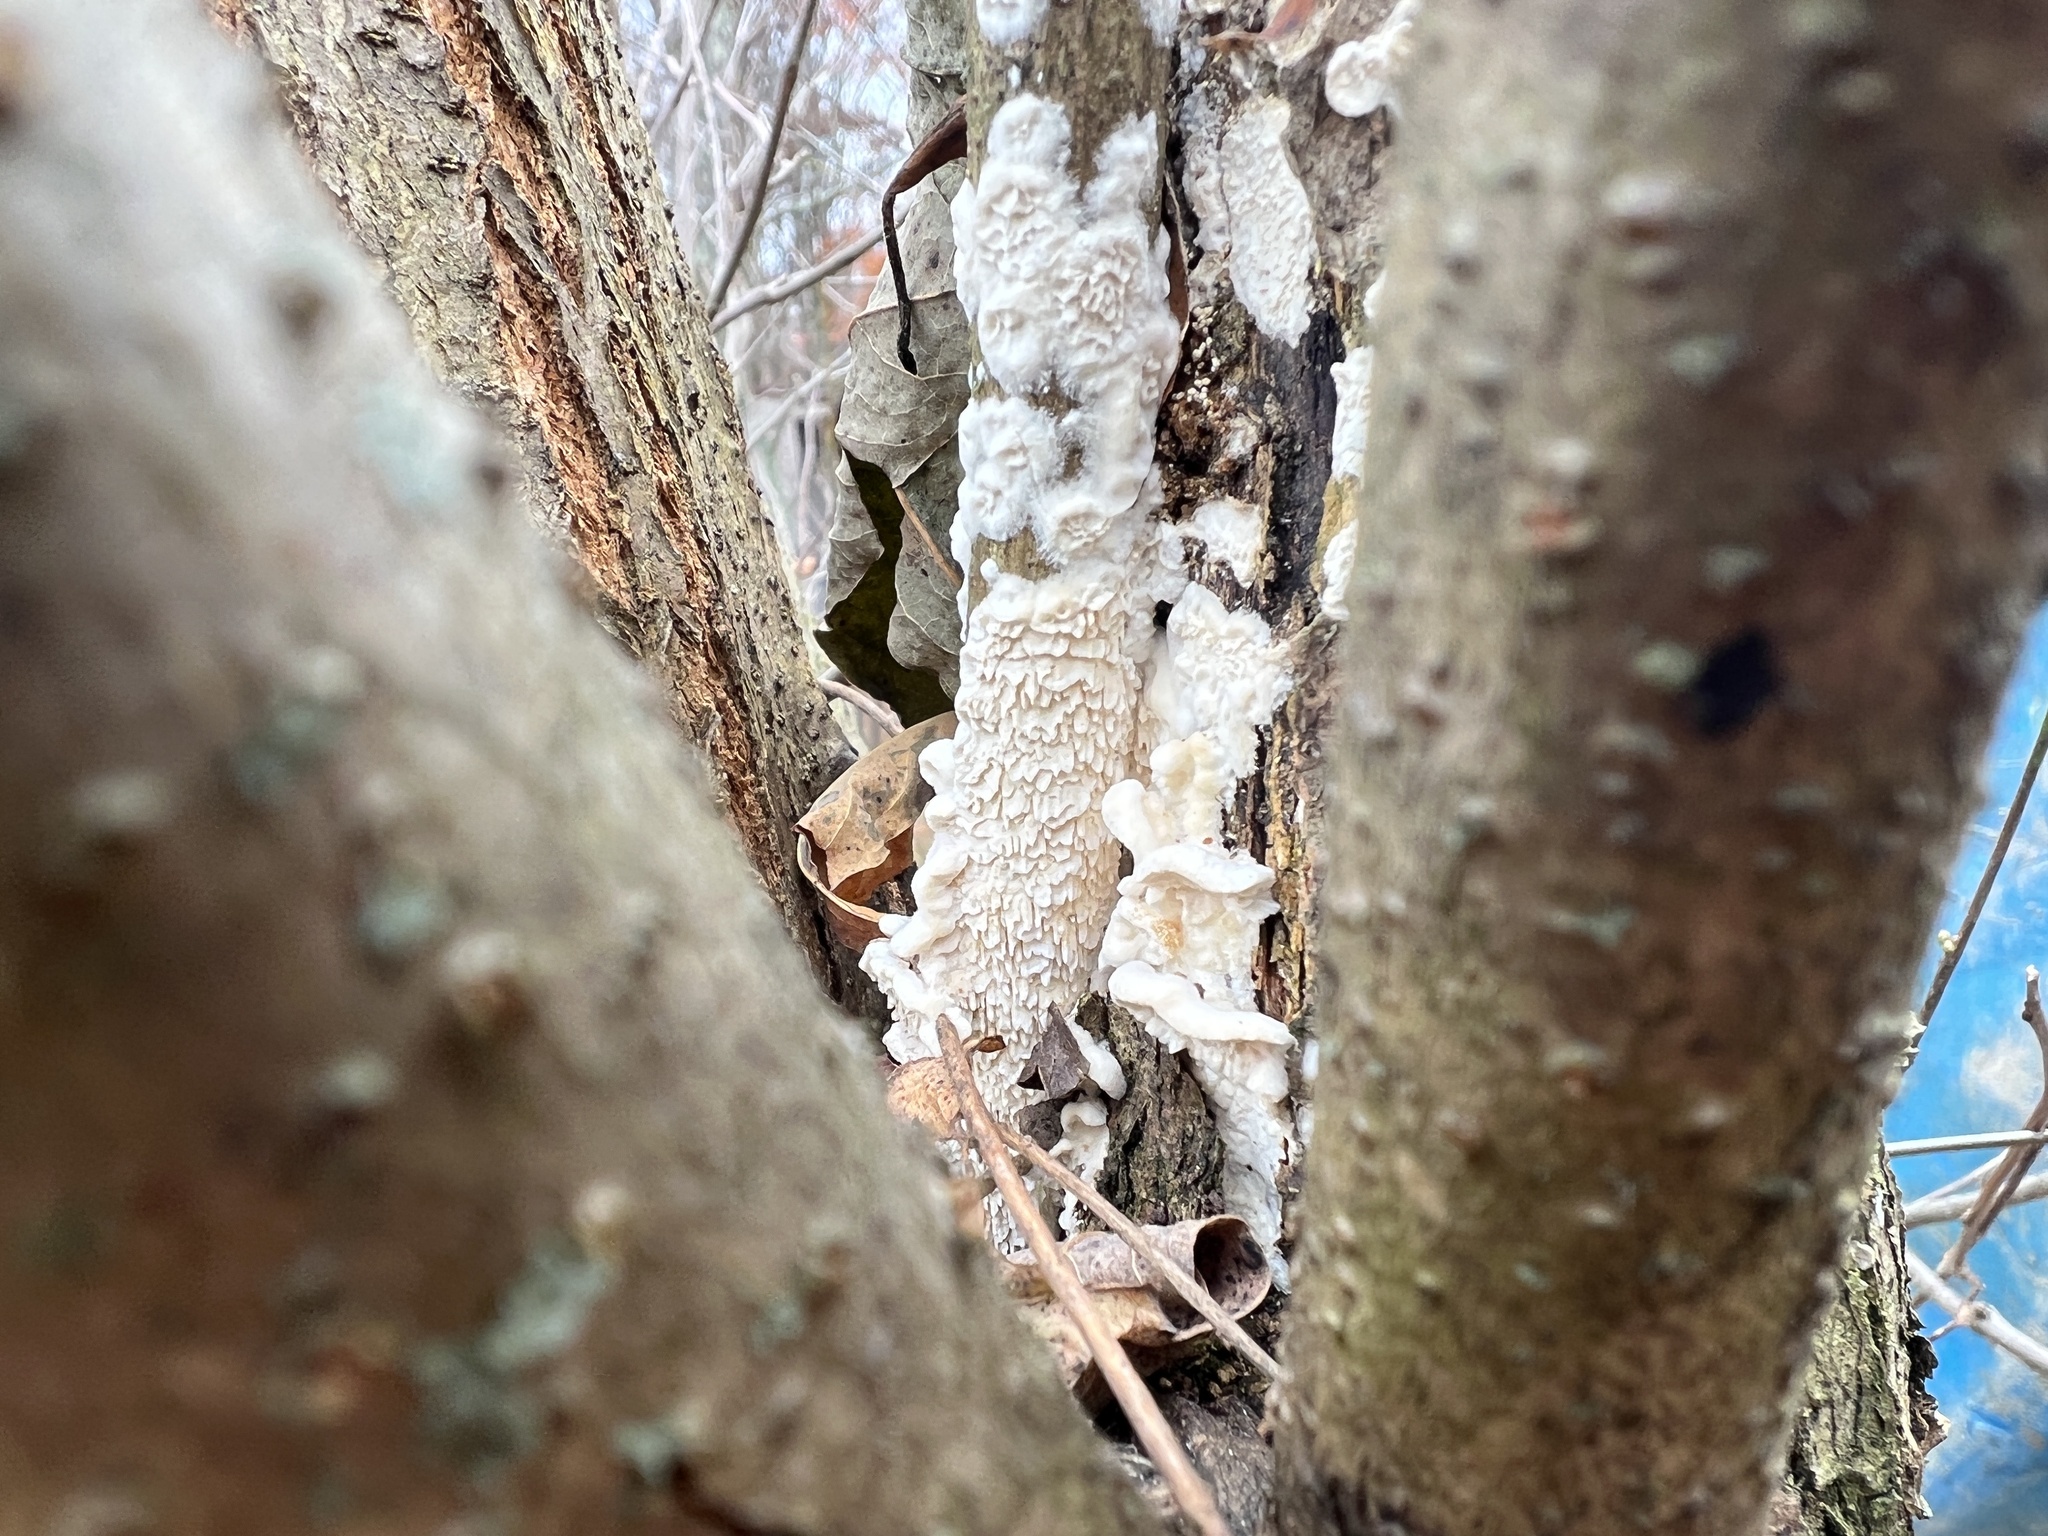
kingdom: Fungi
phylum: Basidiomycota
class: Agaricomycetes
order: Polyporales
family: Irpicaceae
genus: Irpex
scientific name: Irpex lacteus
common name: Milk-white toothed polypore
